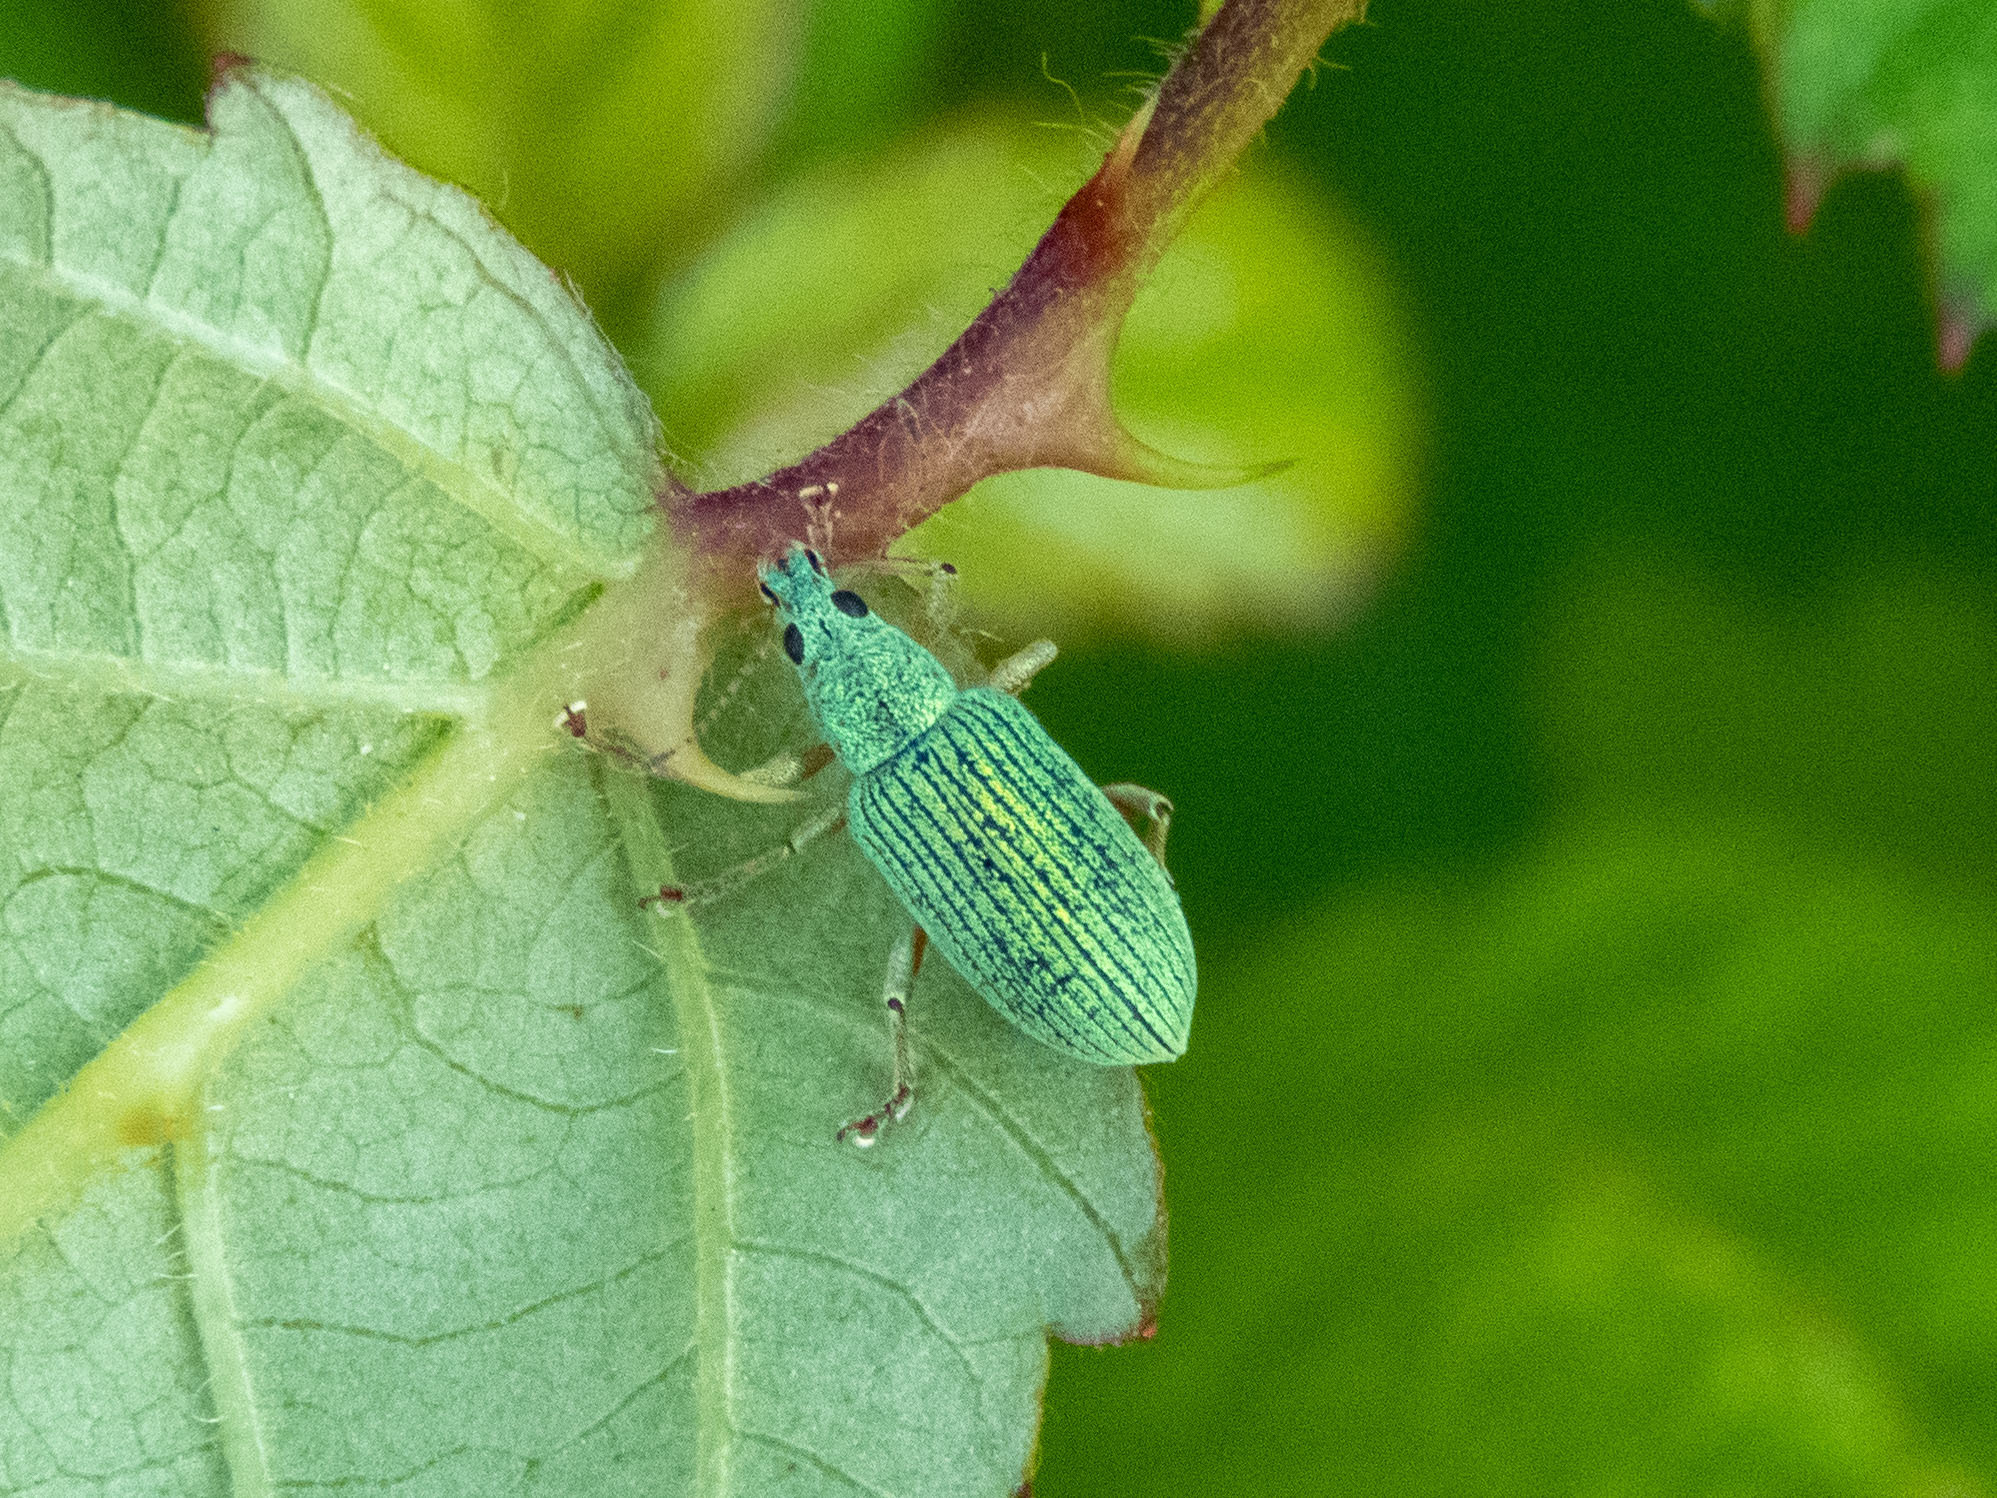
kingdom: Animalia
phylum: Arthropoda
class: Insecta
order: Coleoptera
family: Curculionidae
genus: Polydrusus
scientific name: Polydrusus formosus
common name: Weevil
